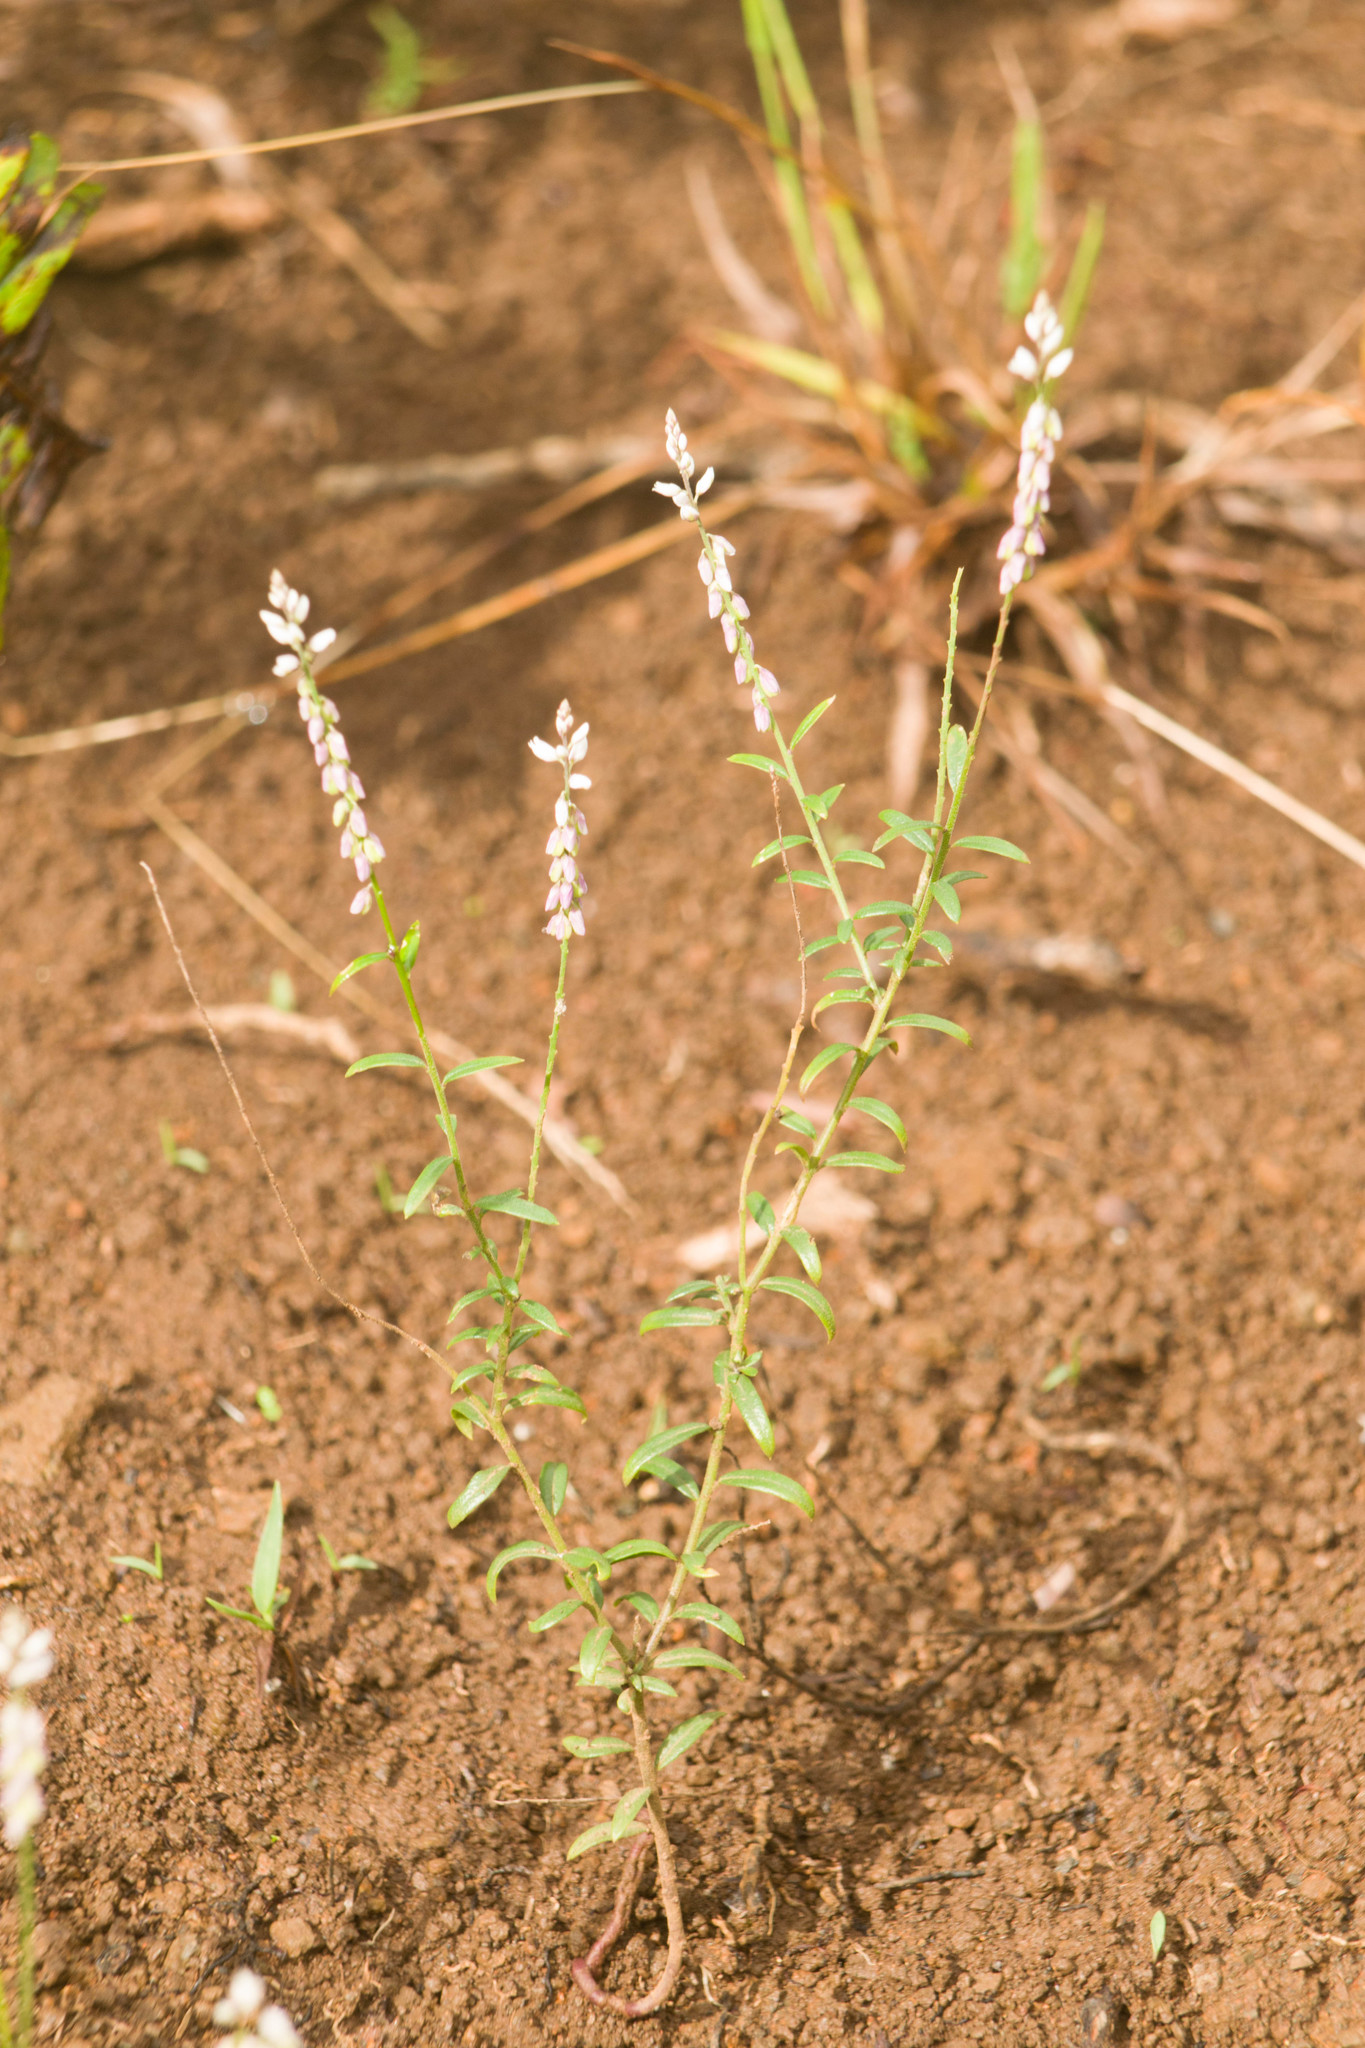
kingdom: Plantae
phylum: Tracheophyta
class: Magnoliopsida
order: Fabales
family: Polygalaceae
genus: Polygala
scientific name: Polygala paniculata
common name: Orosne
